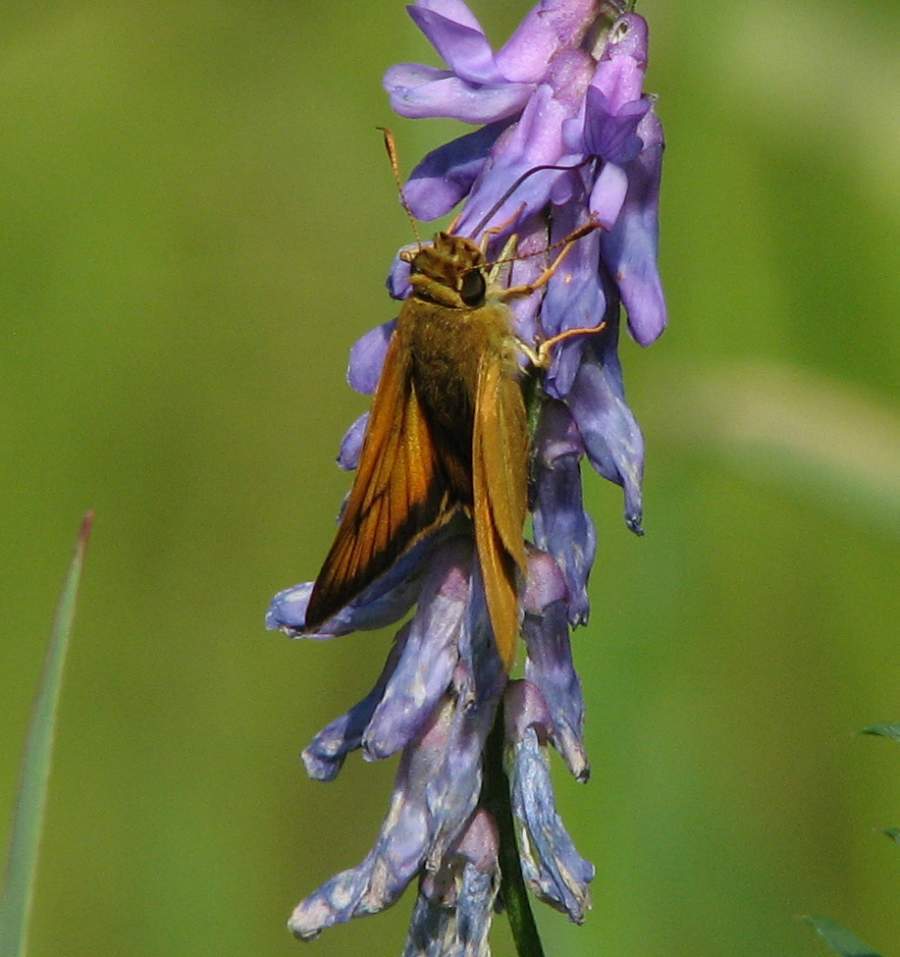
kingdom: Animalia
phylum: Arthropoda
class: Insecta
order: Lepidoptera
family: Hesperiidae
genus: Atrytone
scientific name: Atrytone delaware
